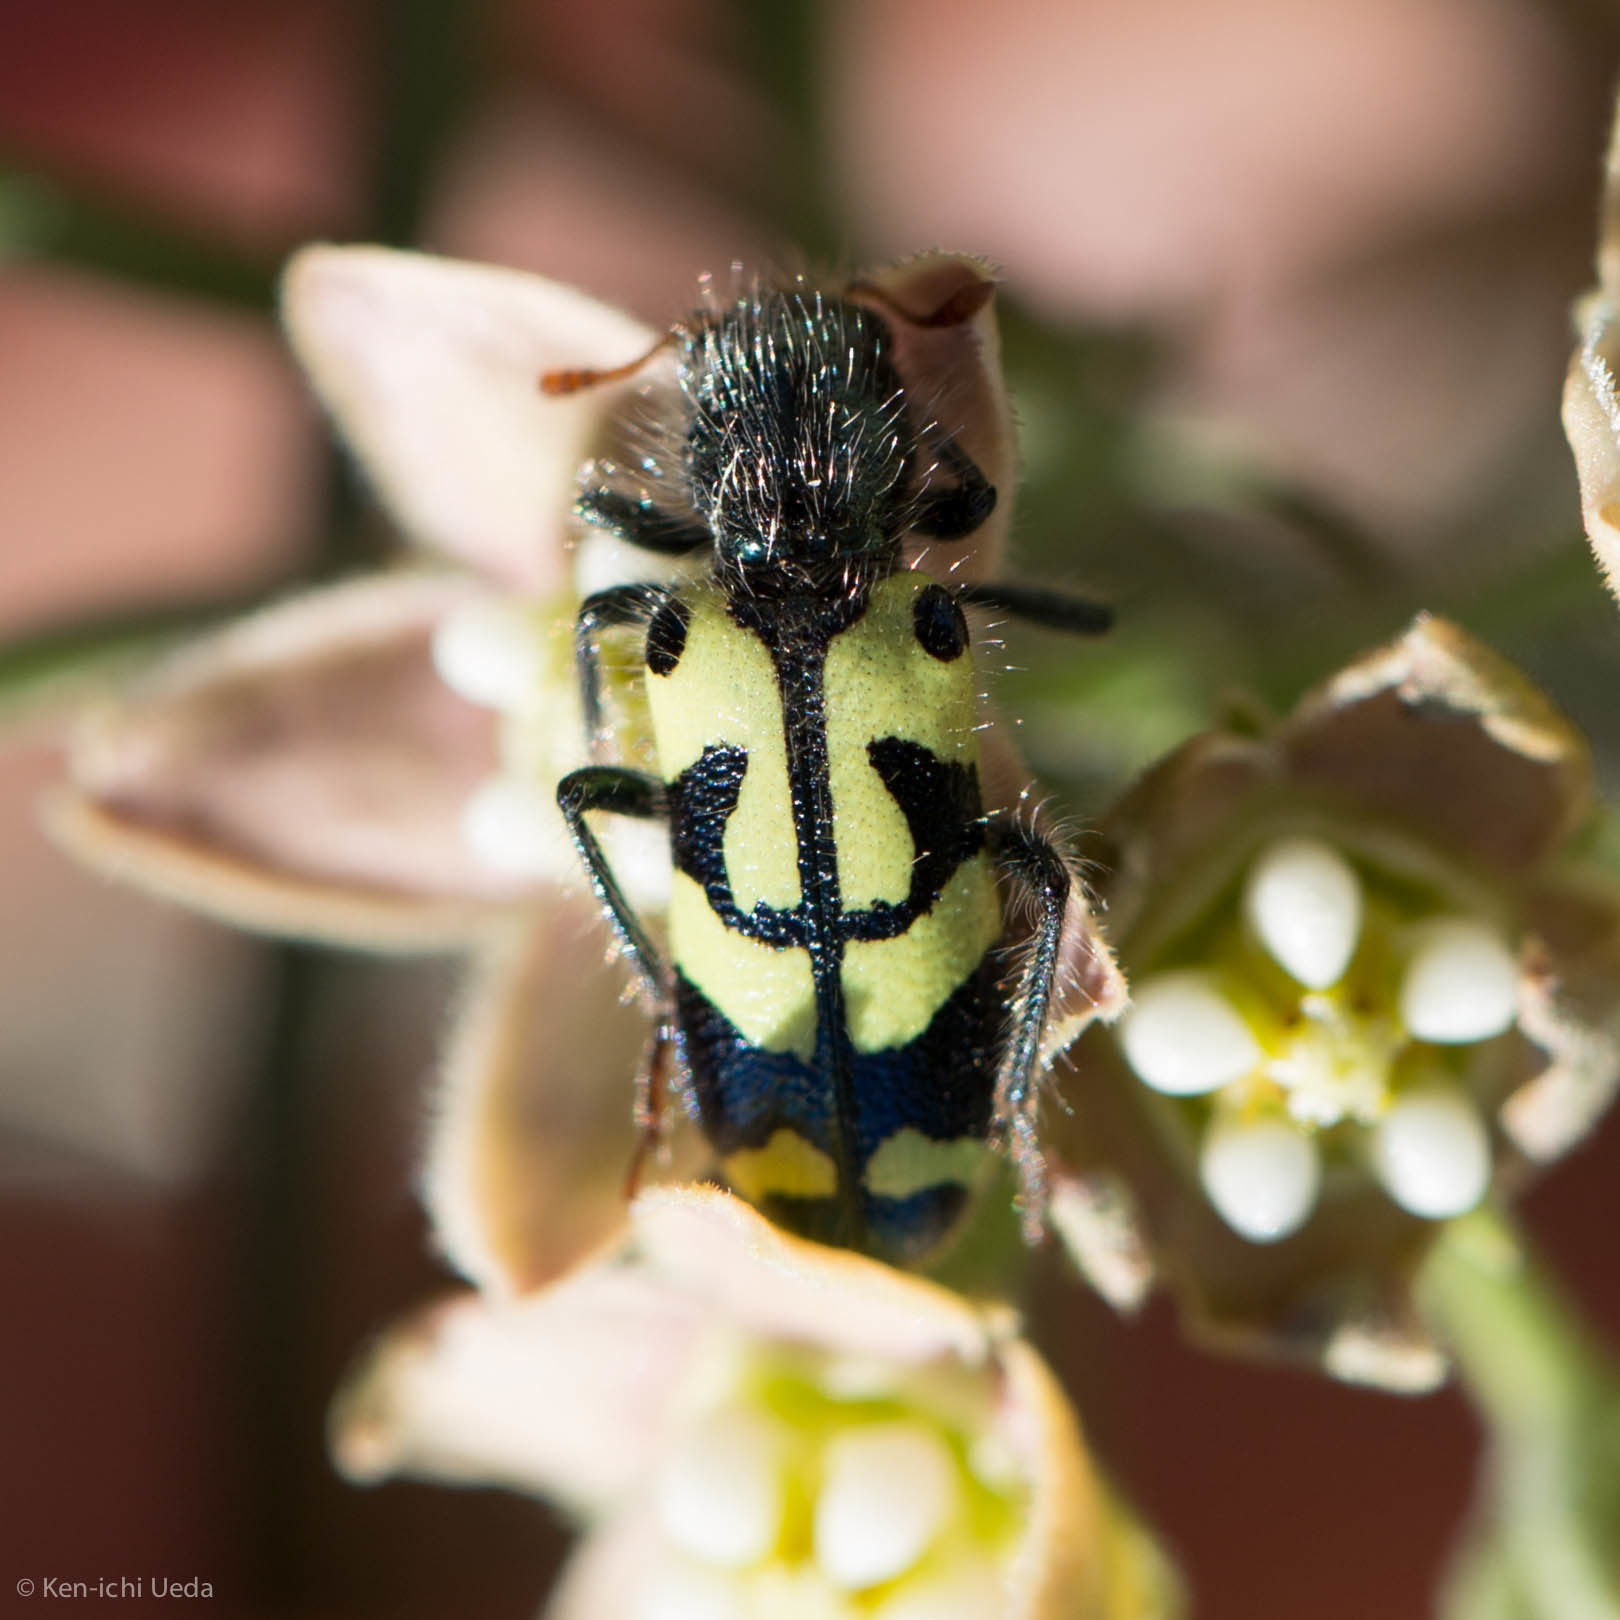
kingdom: Animalia
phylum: Arthropoda
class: Insecta
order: Coleoptera
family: Cleridae
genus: Trichodes
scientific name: Trichodes ornatus
